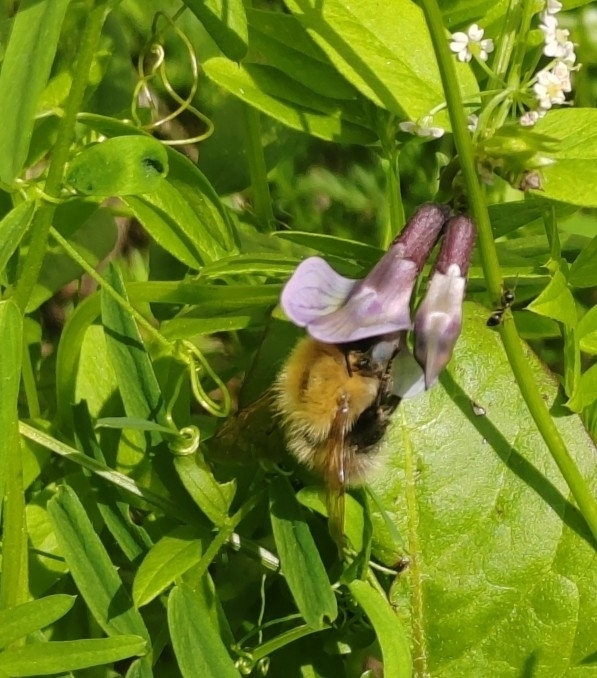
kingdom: Animalia
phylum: Arthropoda
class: Insecta
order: Hymenoptera
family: Apidae
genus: Bombus
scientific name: Bombus
